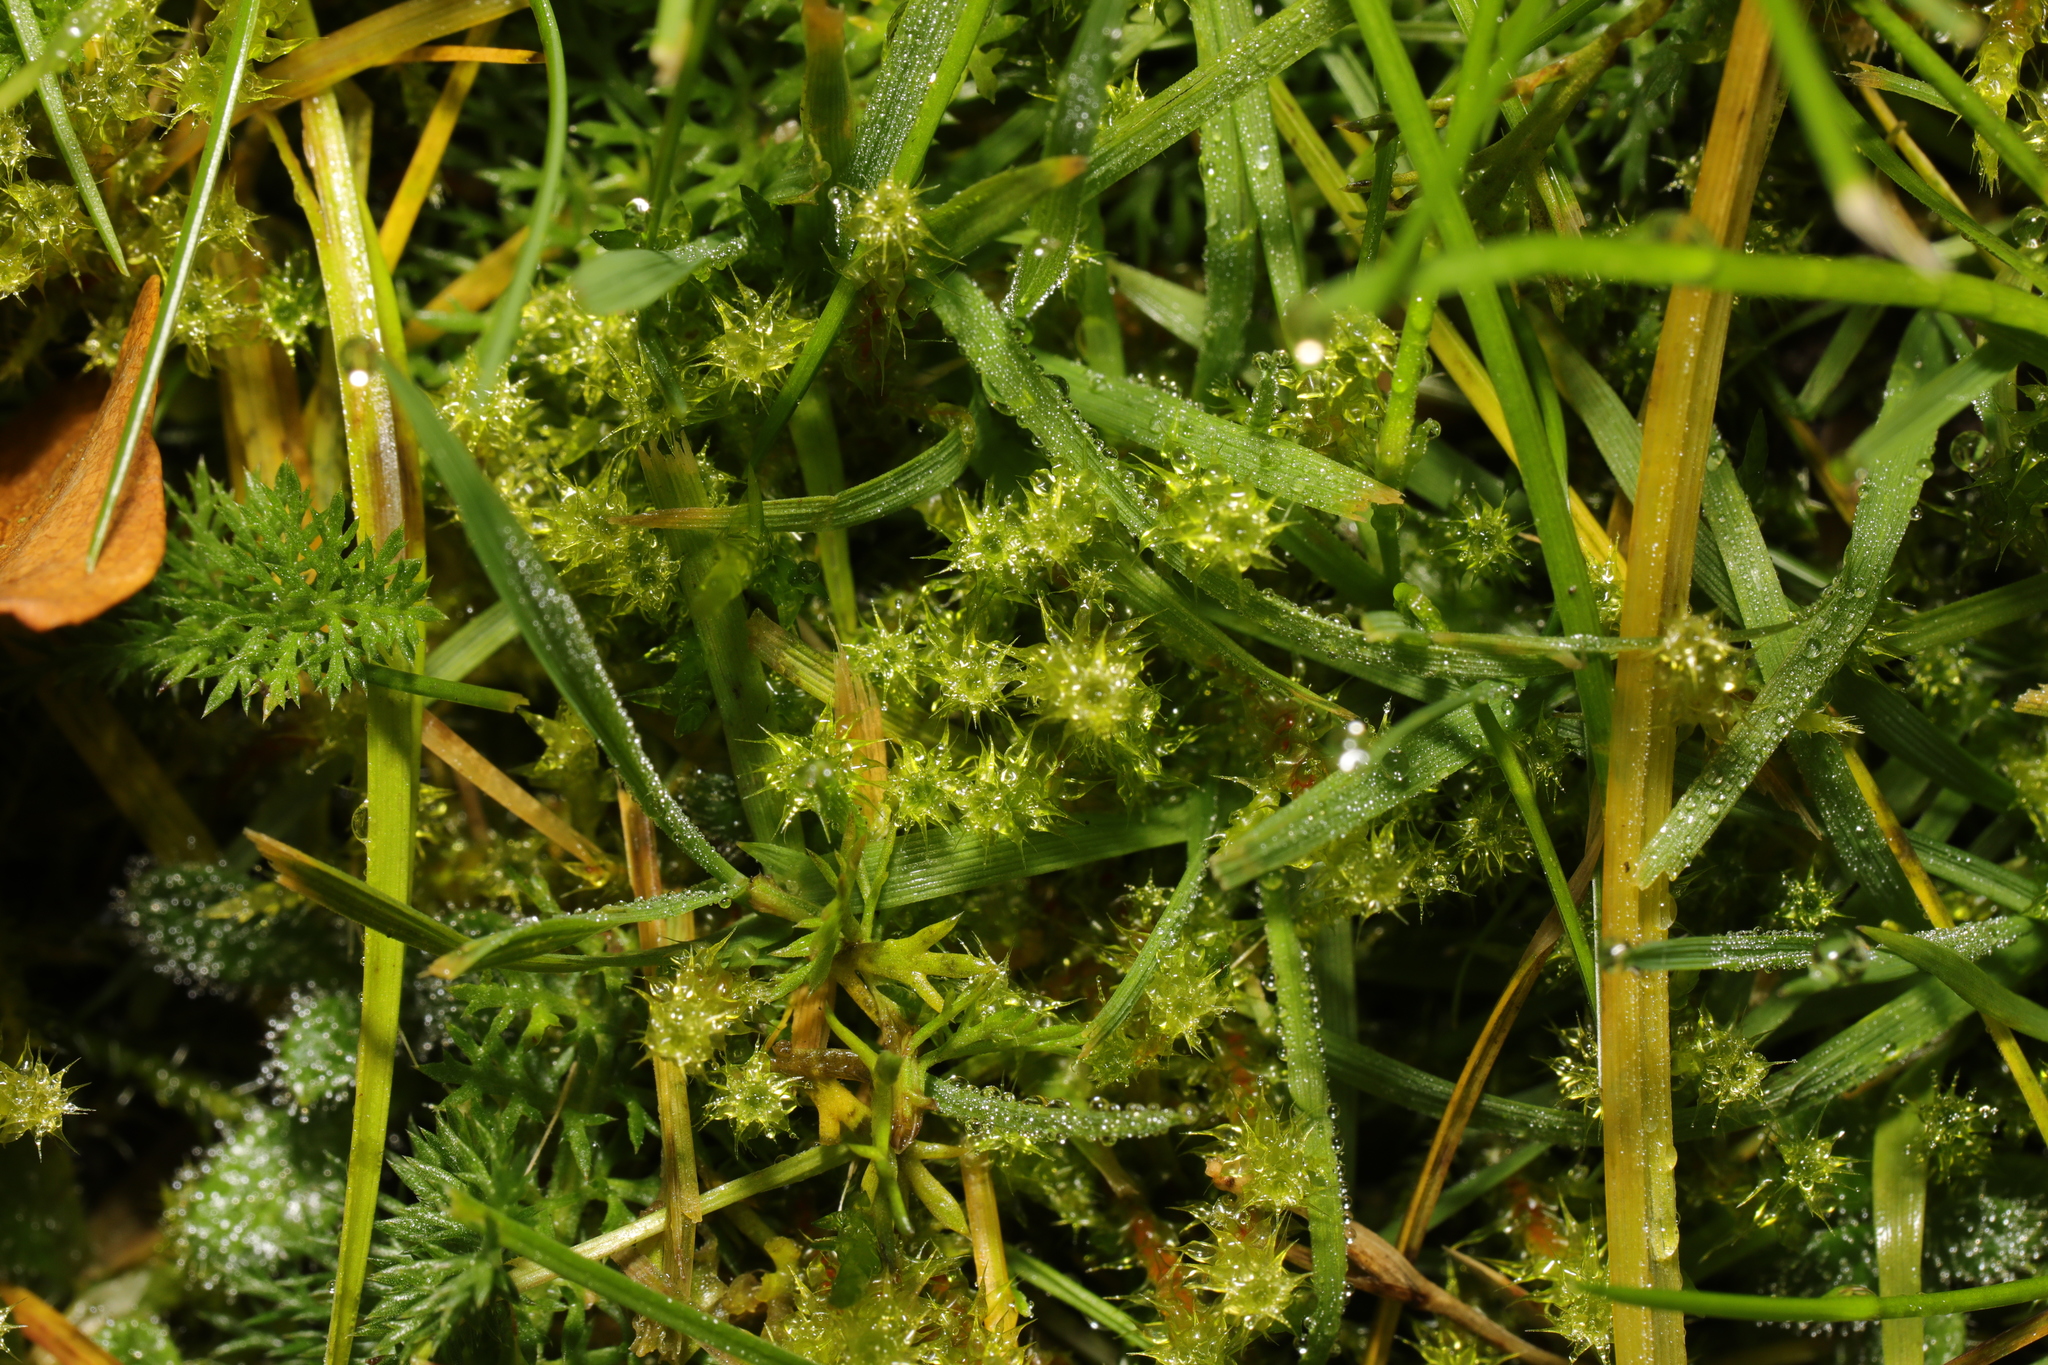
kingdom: Plantae
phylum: Bryophyta
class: Bryopsida
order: Hypnales
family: Hylocomiaceae
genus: Rhytidiadelphus
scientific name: Rhytidiadelphus squarrosus
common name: Springy turf-moss
